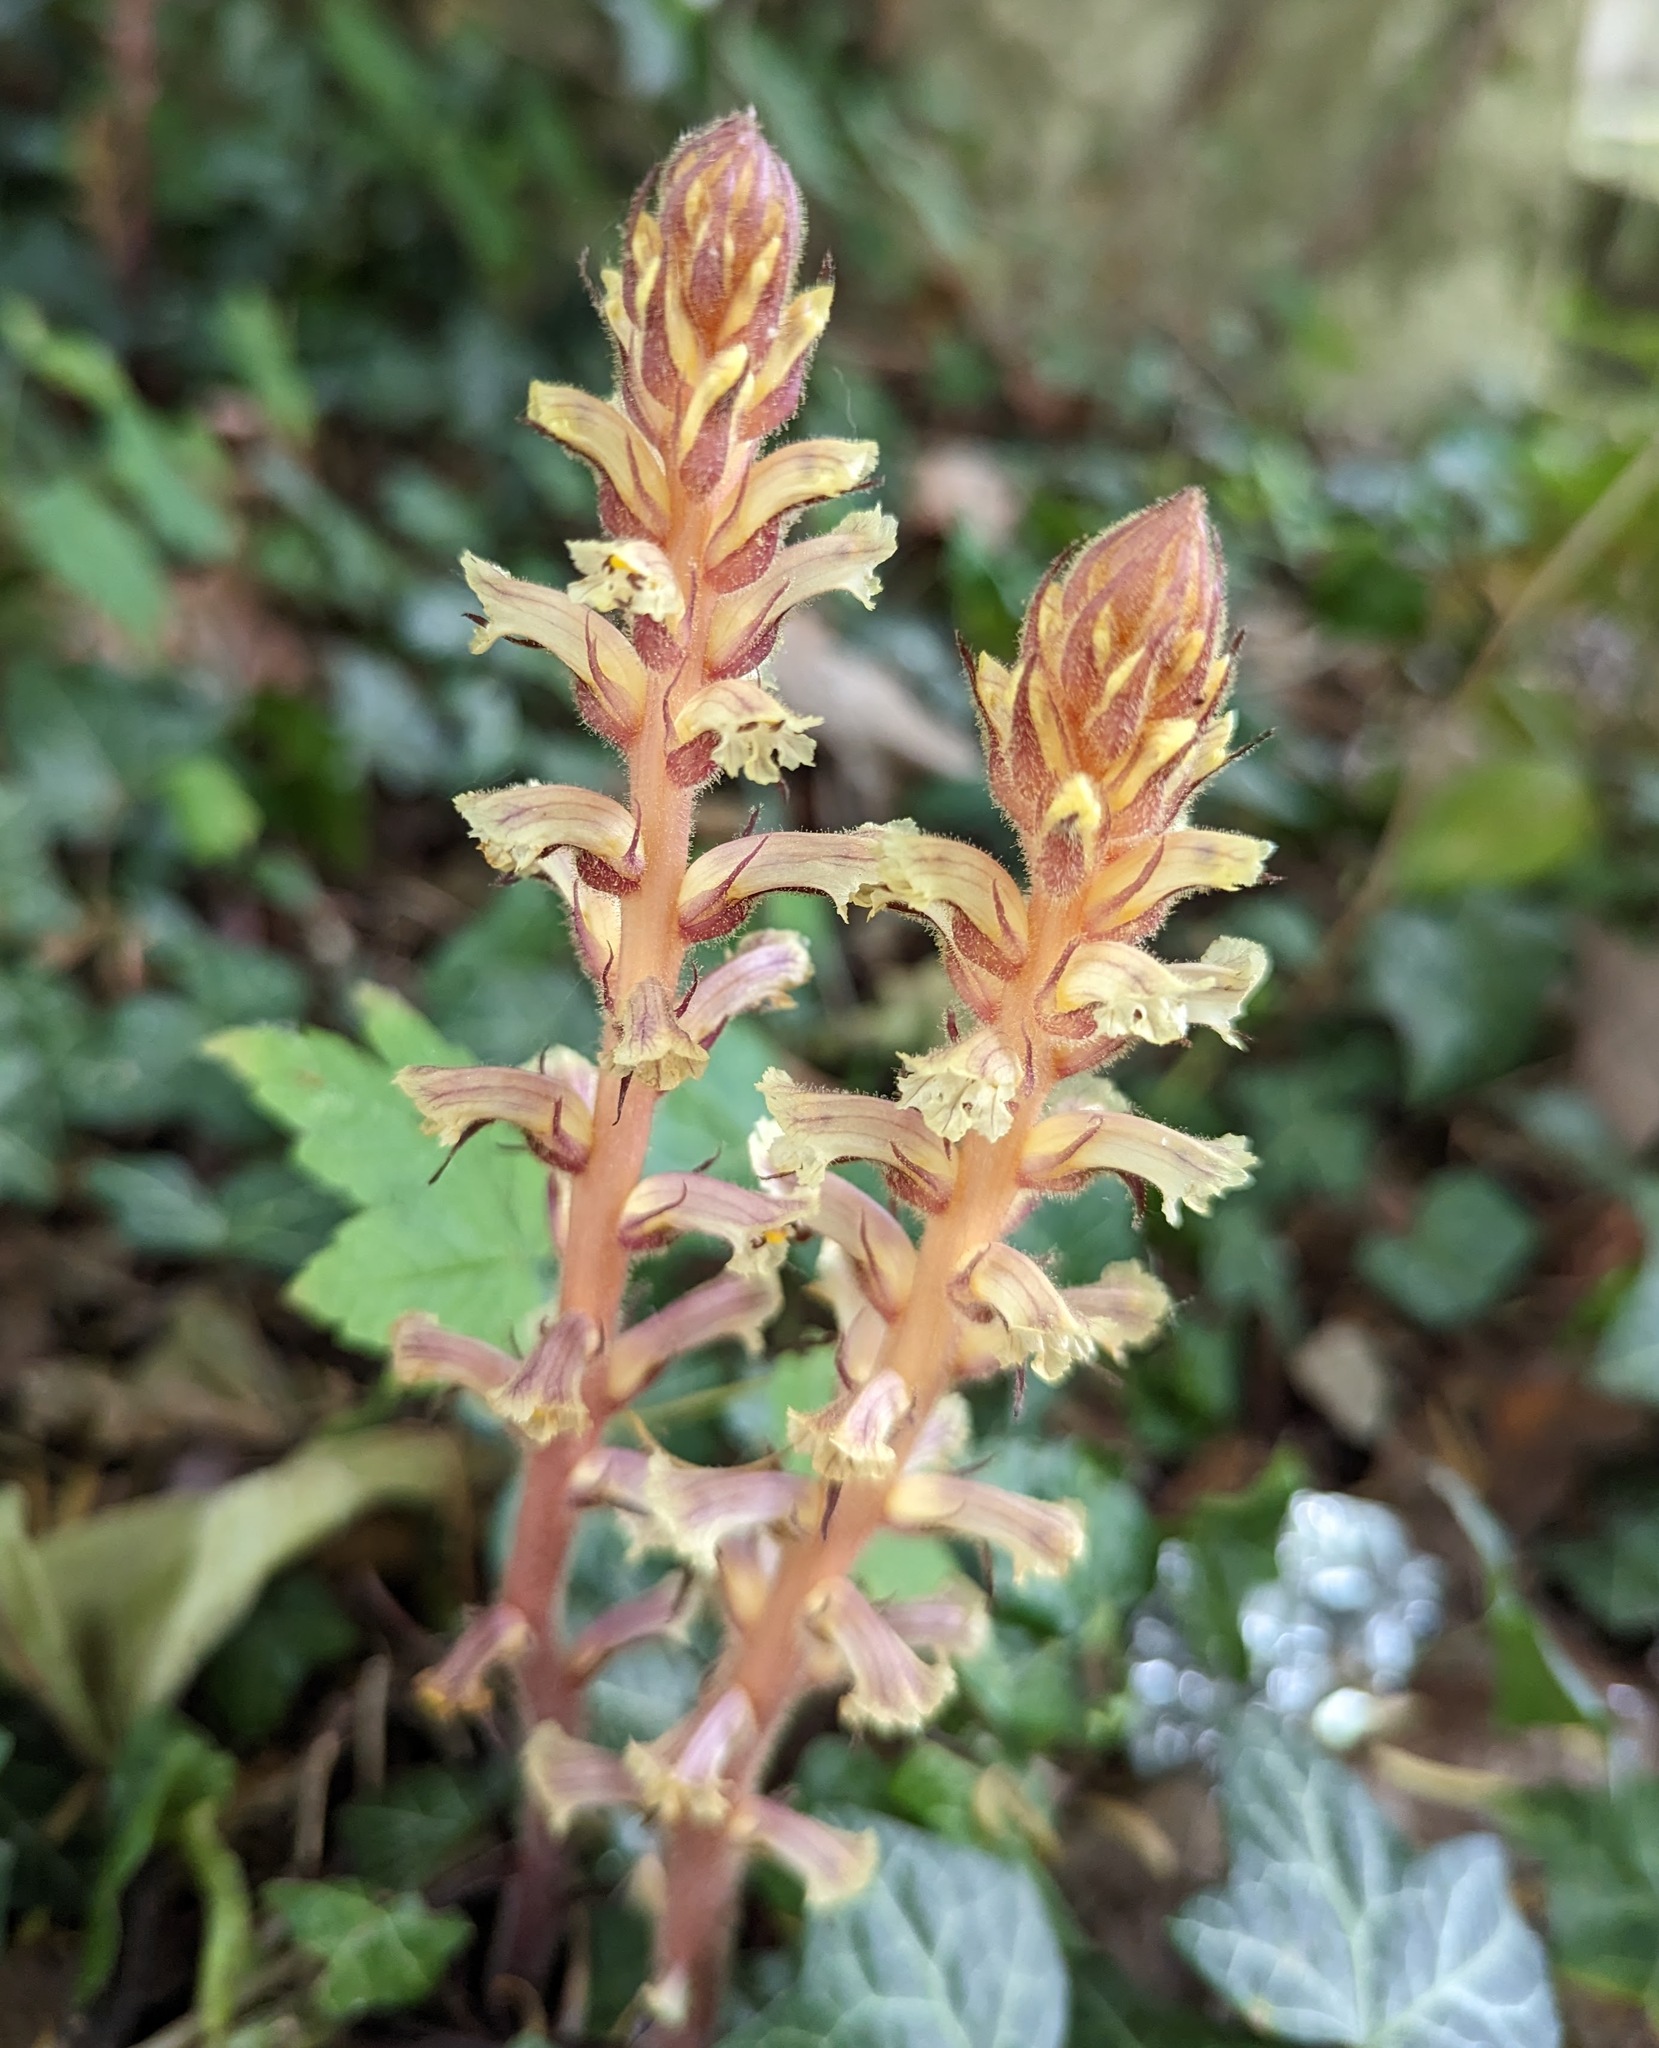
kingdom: Plantae
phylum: Tracheophyta
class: Magnoliopsida
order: Lamiales
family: Orobanchaceae
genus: Orobanche
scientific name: Orobanche hederae
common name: Ivy broomrape
